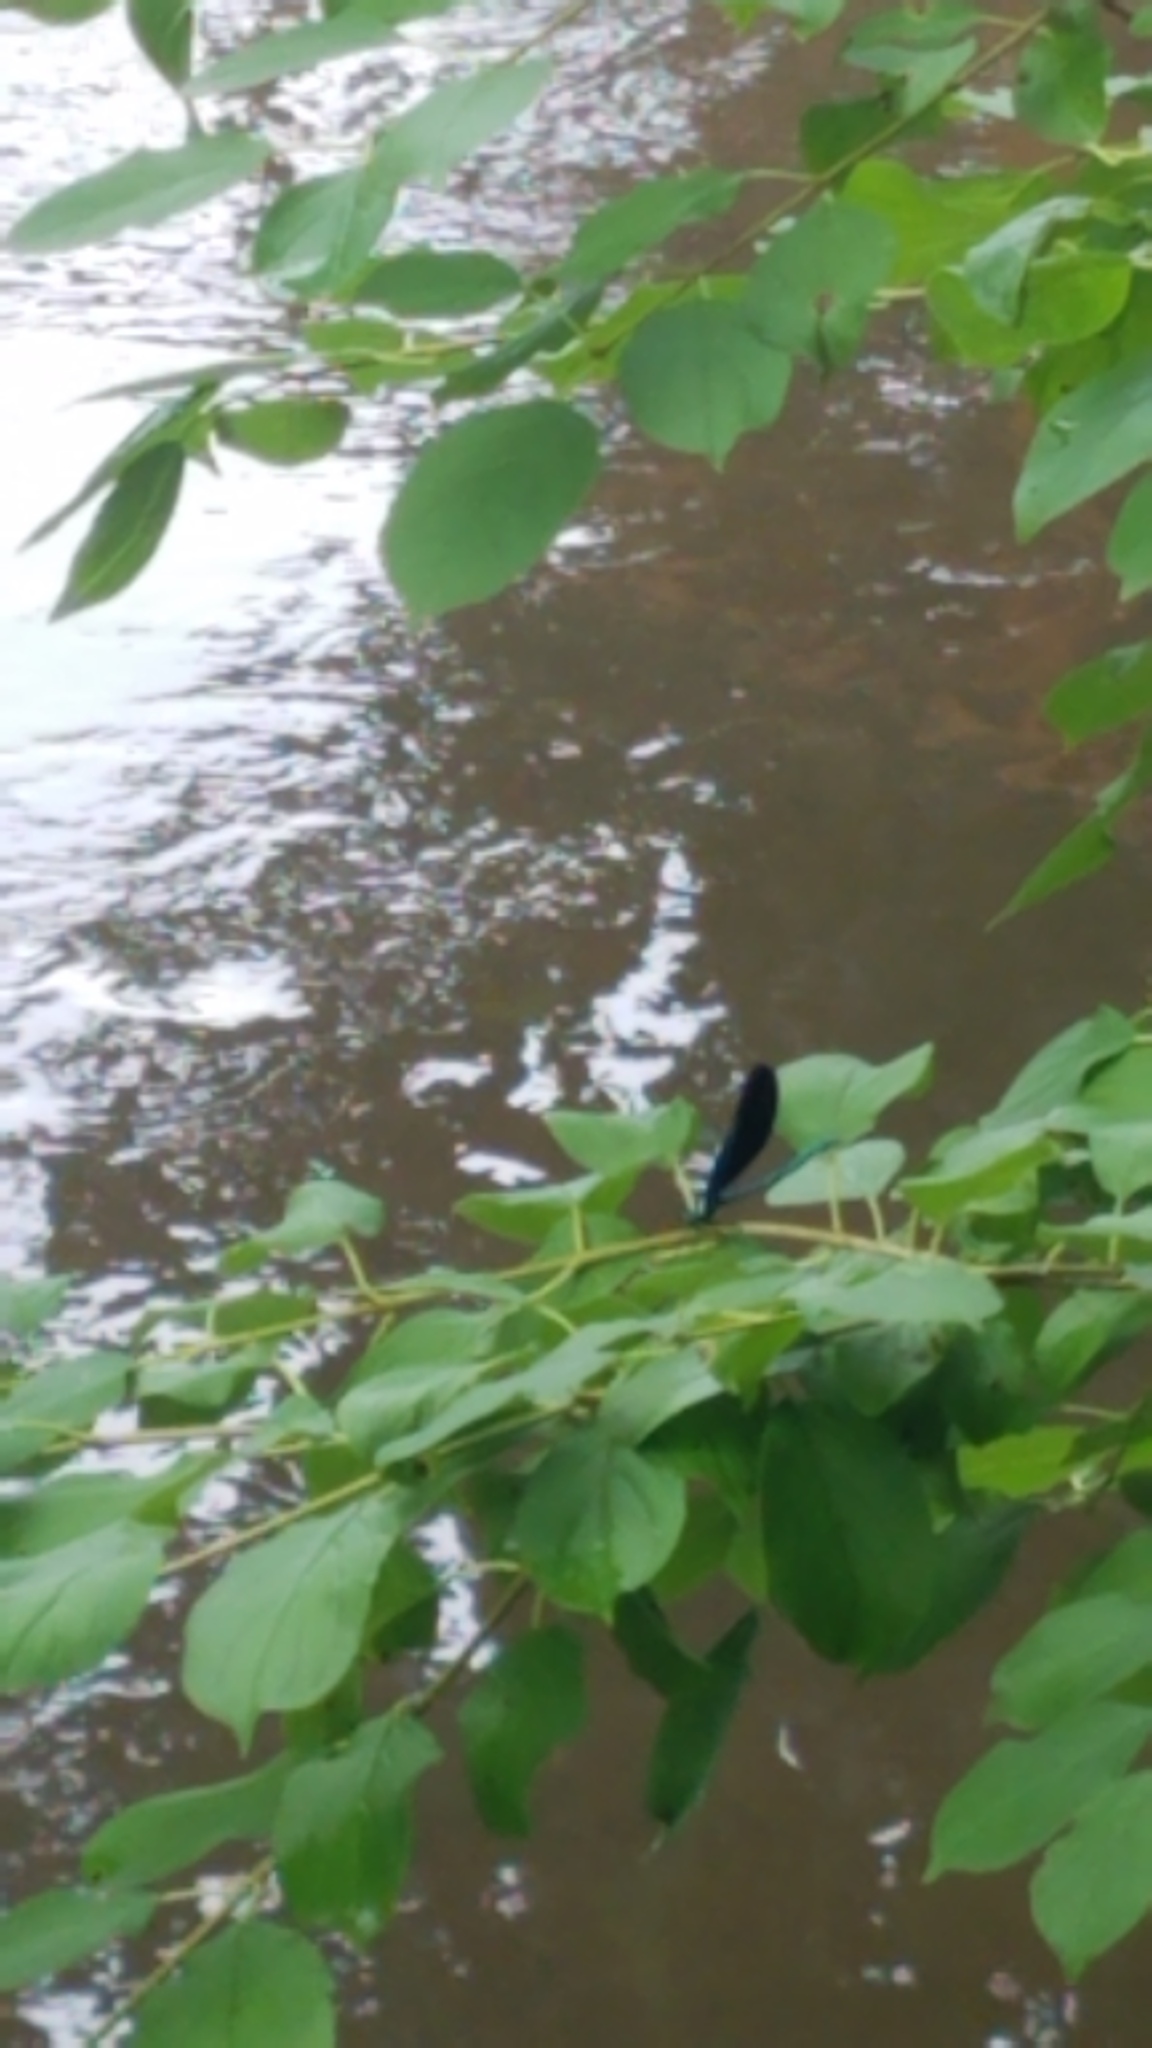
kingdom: Animalia
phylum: Arthropoda
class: Insecta
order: Odonata
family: Calopterygidae
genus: Calopteryx
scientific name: Calopteryx maculata
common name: Ebony jewelwing
